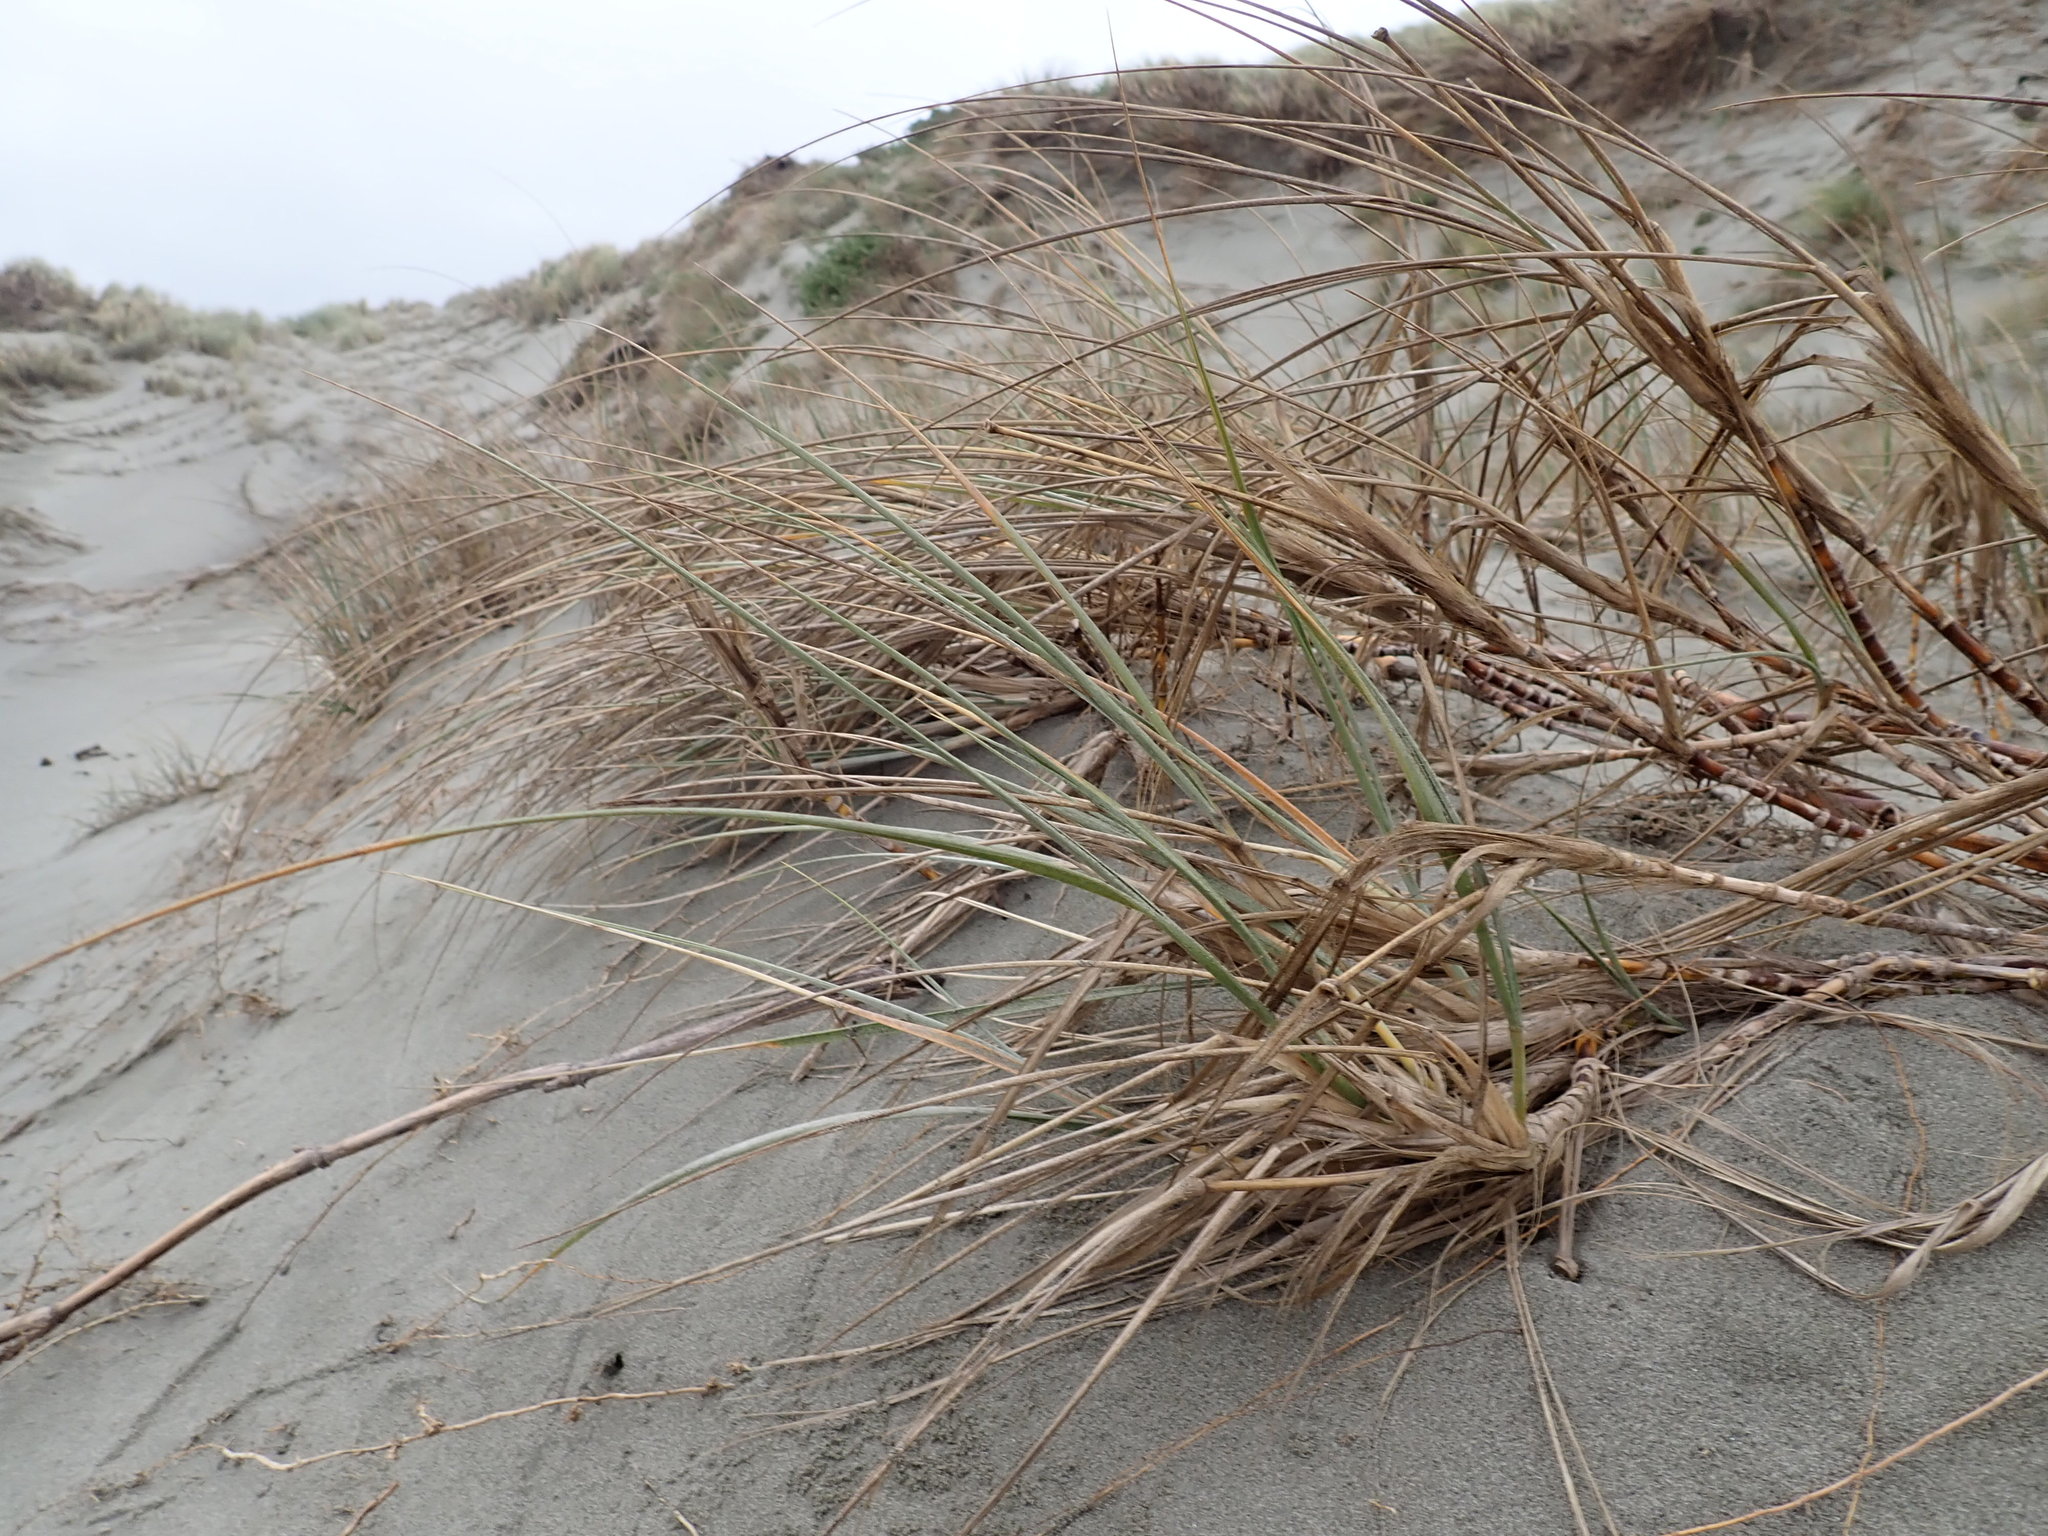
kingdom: Plantae
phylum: Tracheophyta
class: Liliopsida
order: Poales
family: Poaceae
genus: Spinifex
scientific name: Spinifex sericeus
